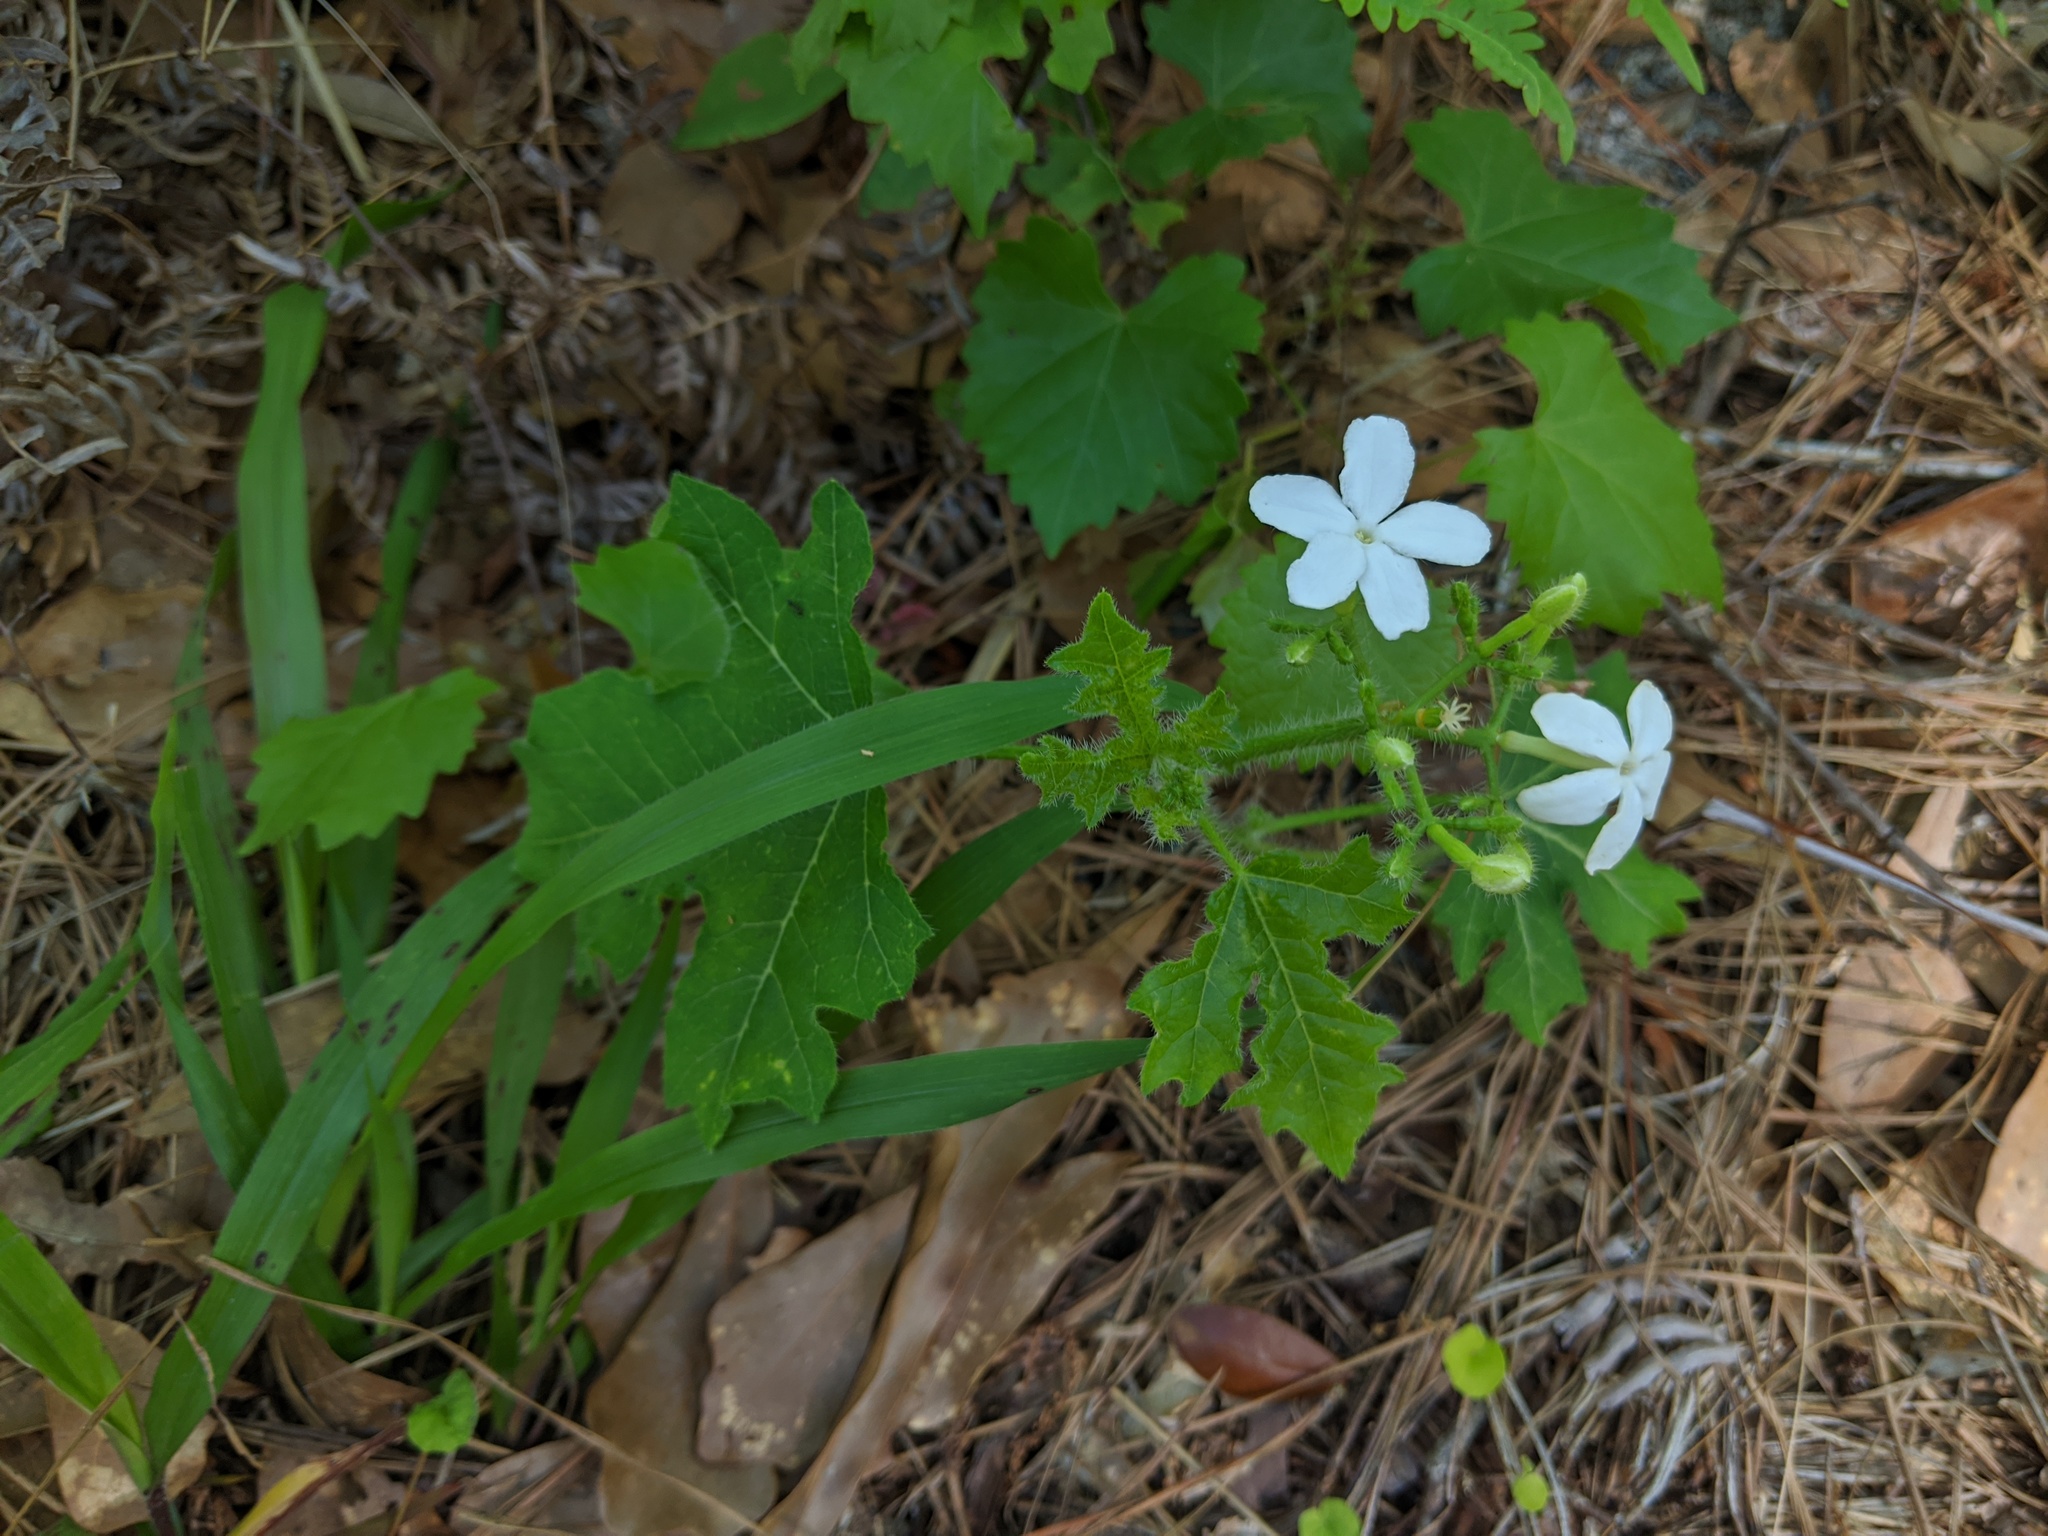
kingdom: Plantae
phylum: Tracheophyta
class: Magnoliopsida
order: Malpighiales
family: Euphorbiaceae
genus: Cnidoscolus
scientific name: Cnidoscolus stimulosus
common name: Bull-nettle
